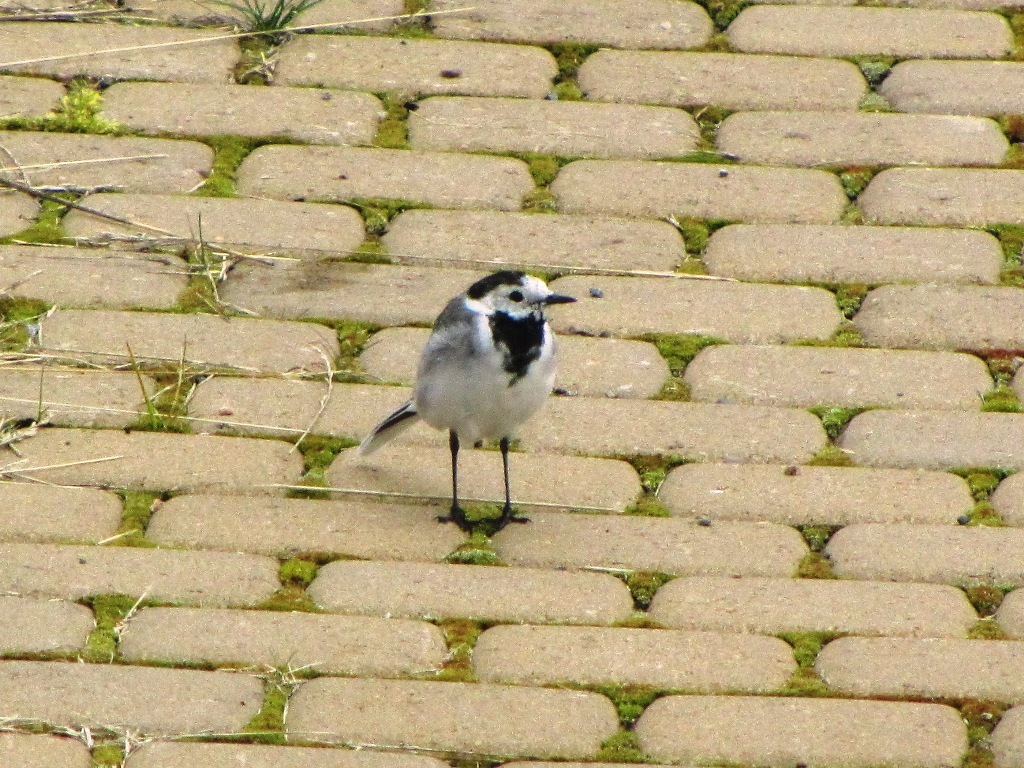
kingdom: Animalia
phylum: Chordata
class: Aves
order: Passeriformes
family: Motacillidae
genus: Motacilla
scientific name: Motacilla alba
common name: White wagtail
